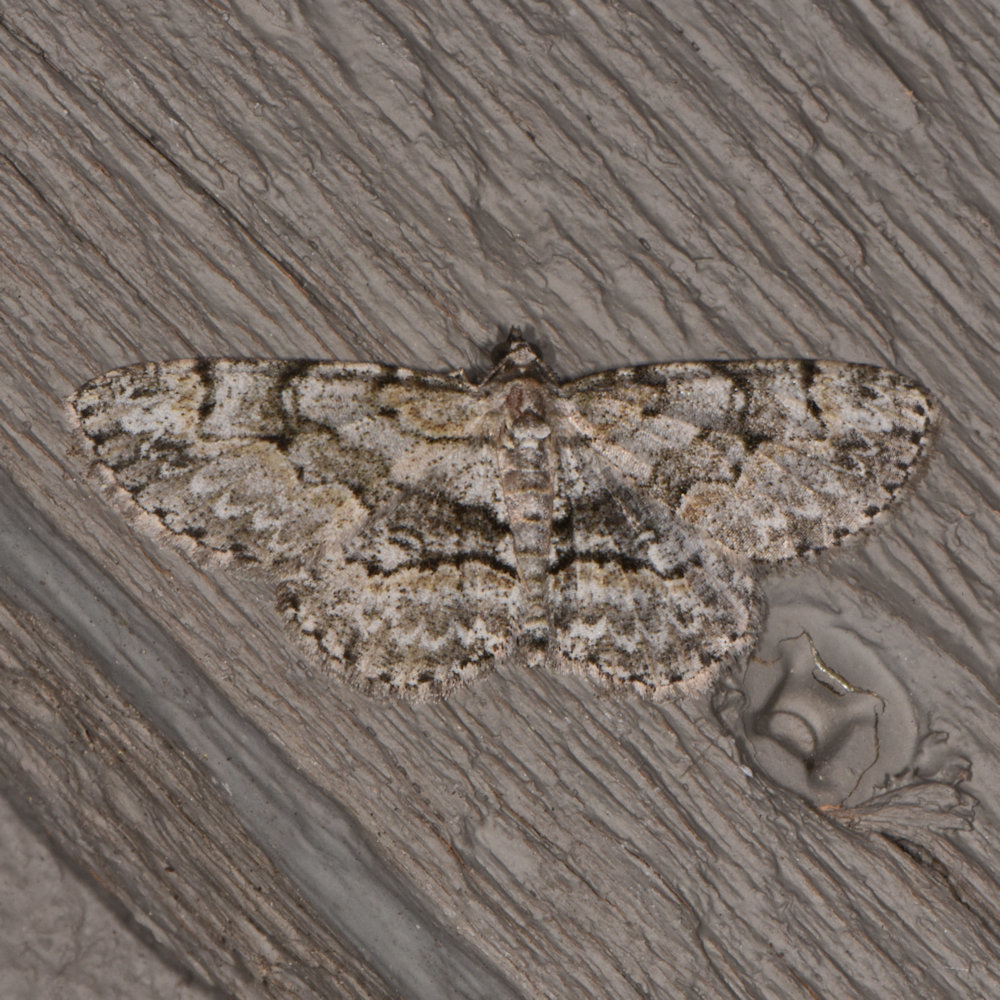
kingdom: Animalia
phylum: Arthropoda
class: Insecta
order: Lepidoptera
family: Geometridae
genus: Iridopsis
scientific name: Iridopsis ephyraria
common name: Pale-winged gray
